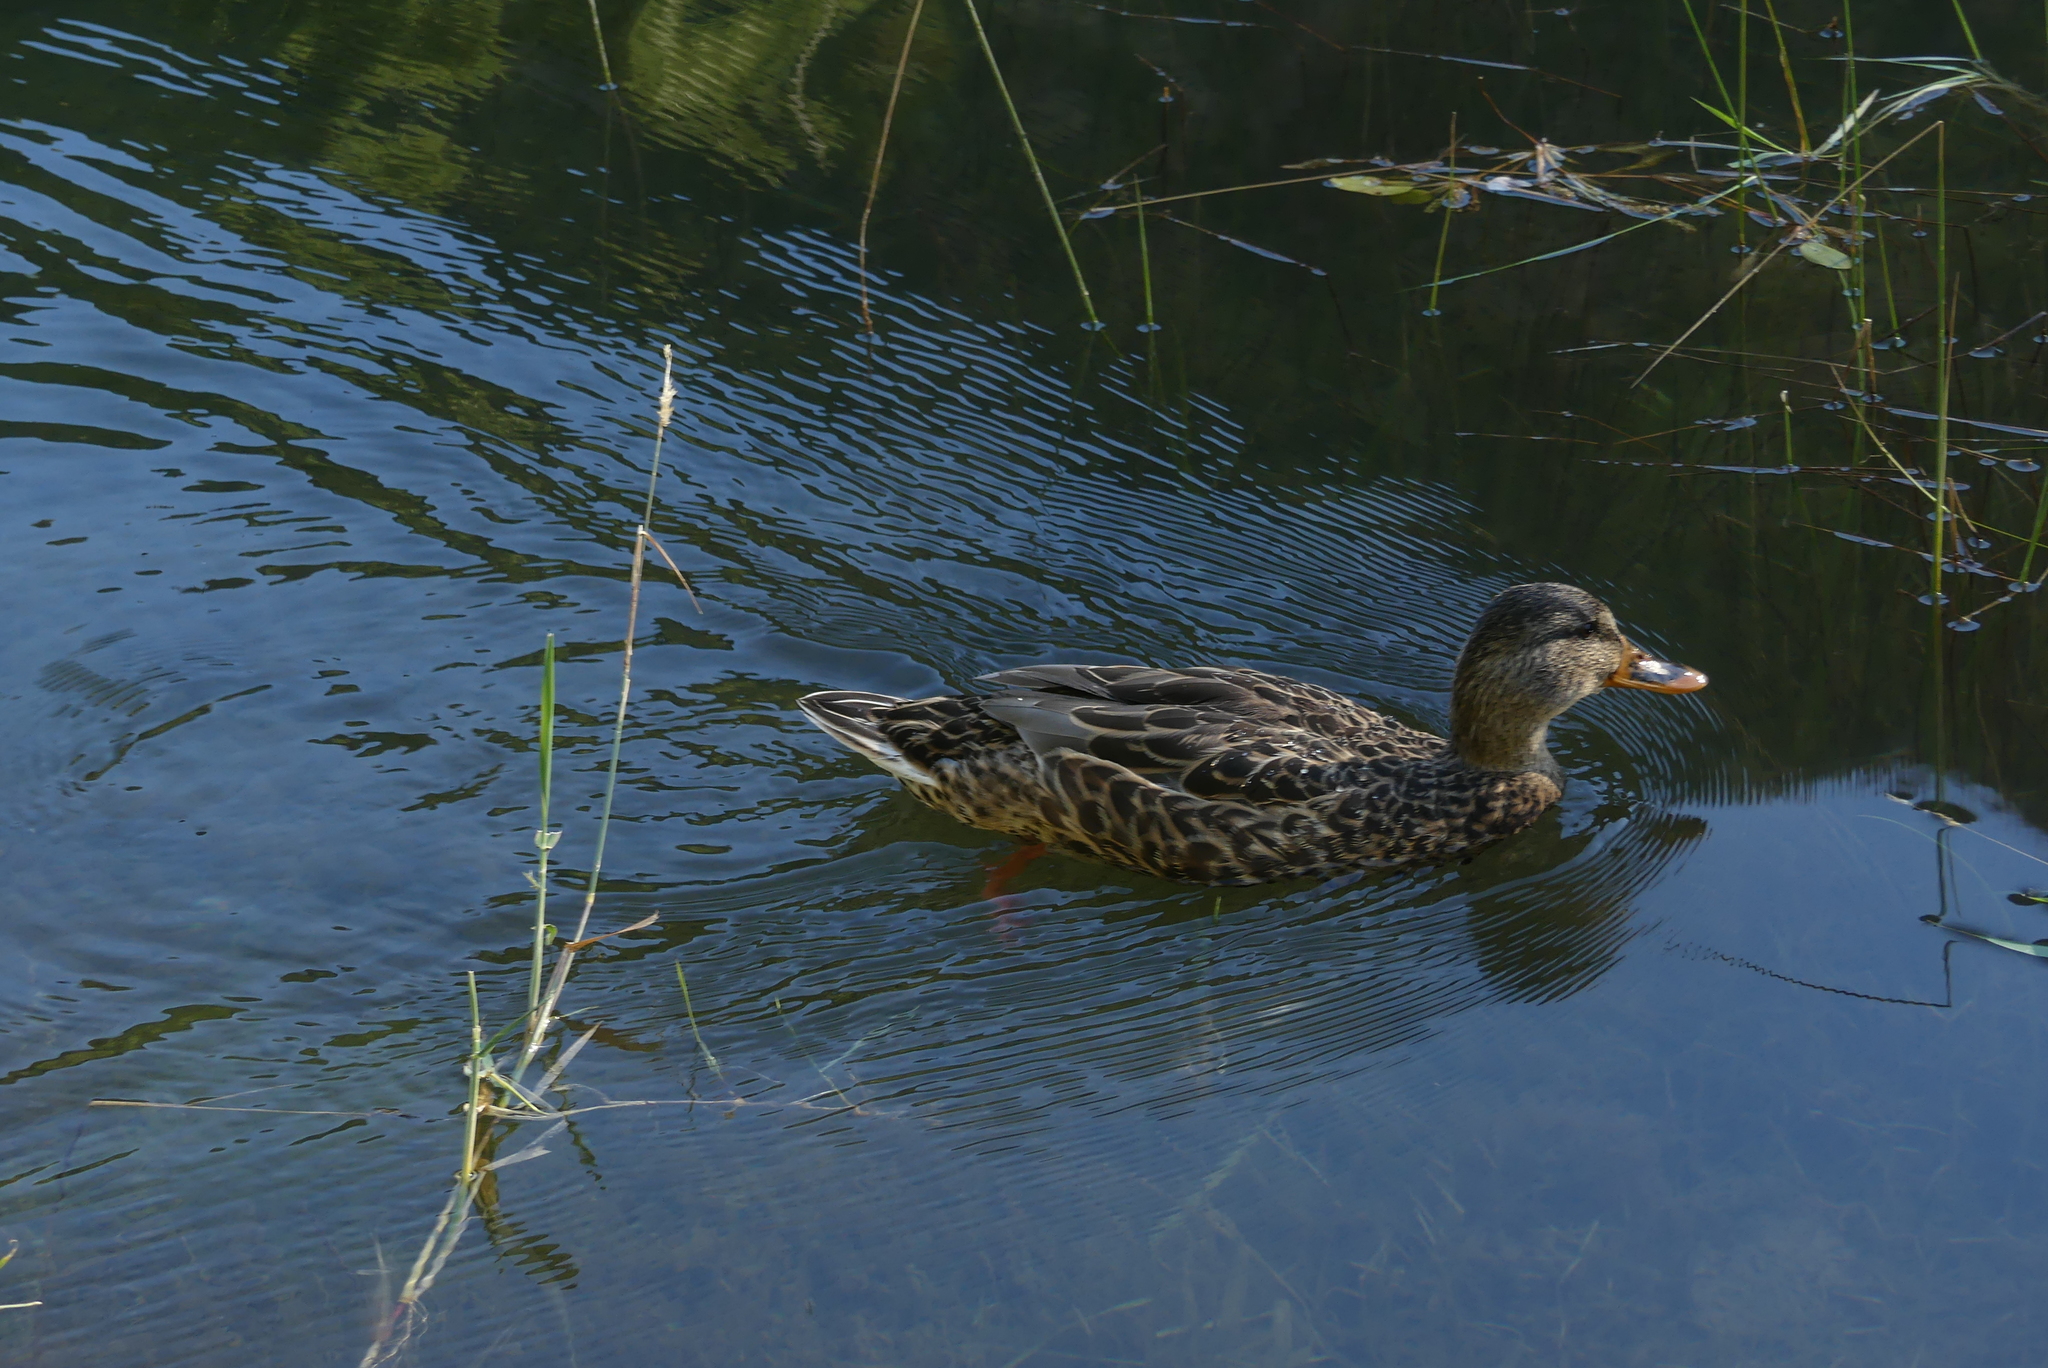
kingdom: Animalia
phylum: Chordata
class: Aves
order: Anseriformes
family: Anatidae
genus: Anas
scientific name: Anas platyrhynchos
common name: Mallard
